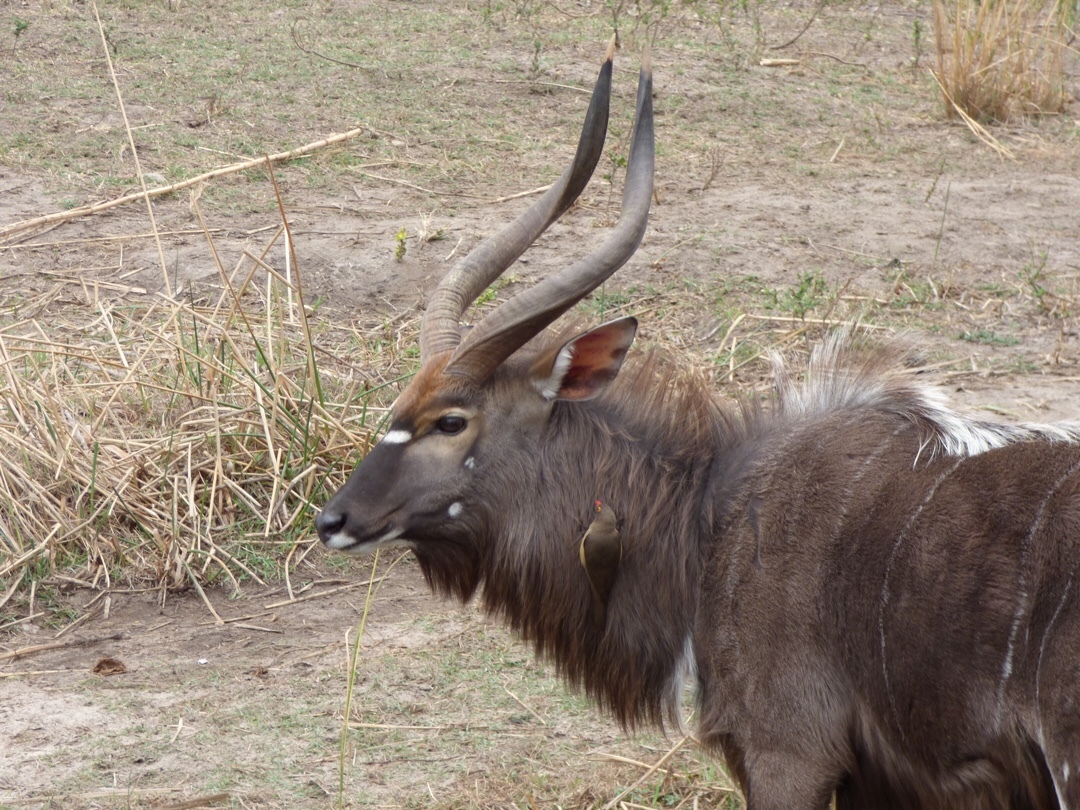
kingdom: Animalia
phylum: Chordata
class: Mammalia
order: Artiodactyla
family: Bovidae
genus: Tragelaphus
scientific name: Tragelaphus angasii
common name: Nyala
